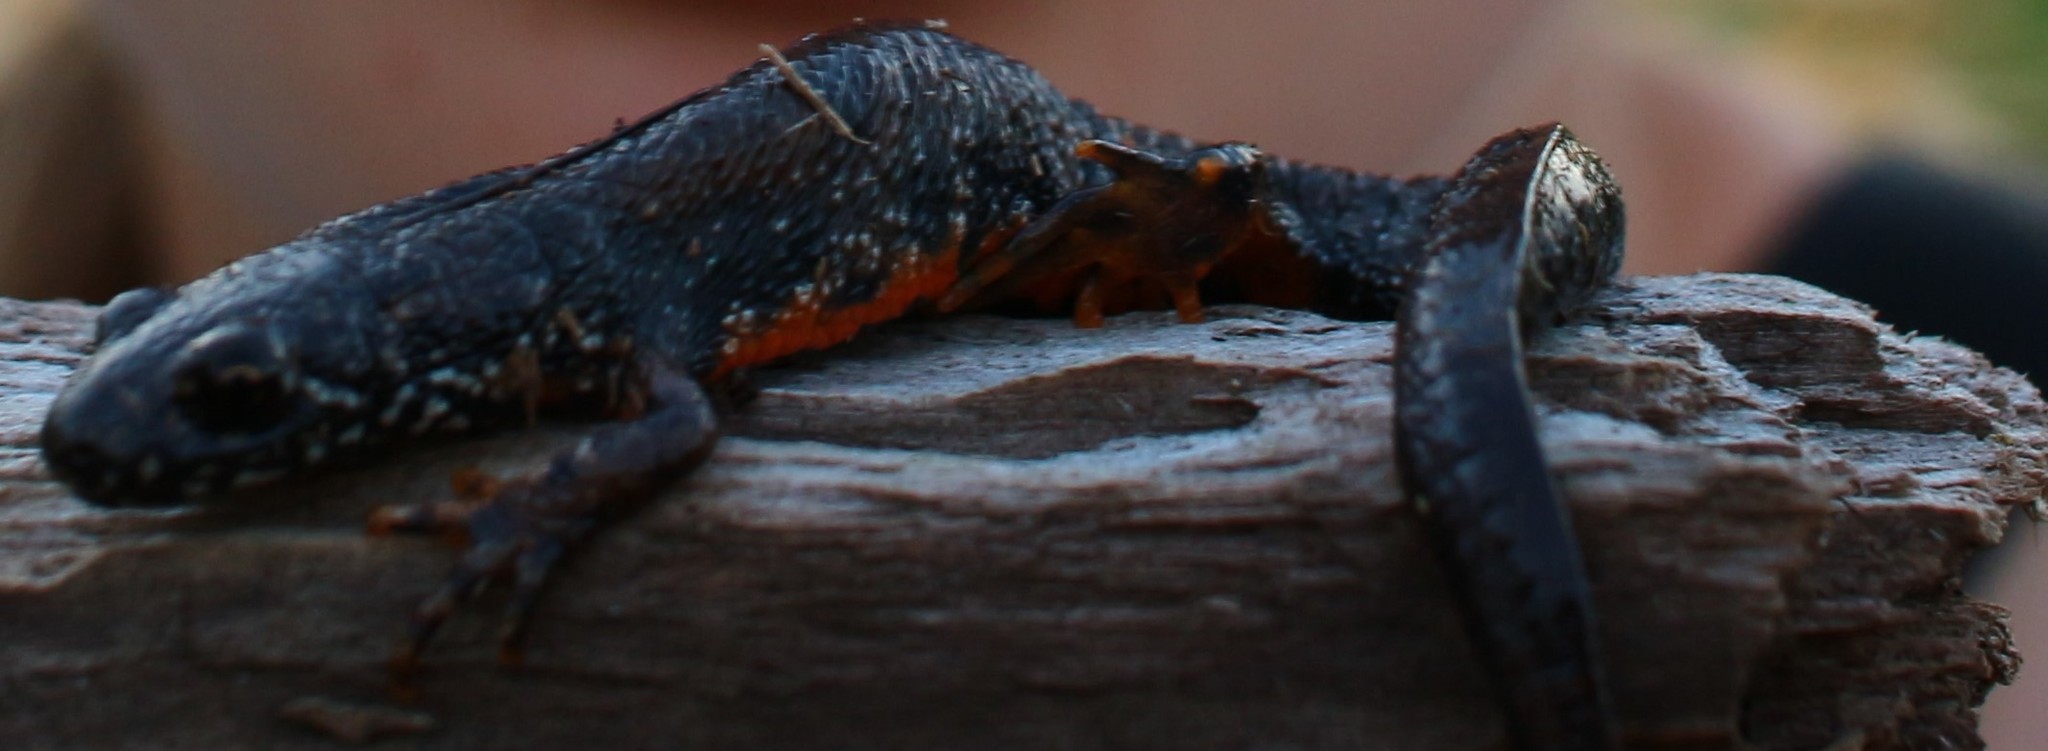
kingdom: Animalia
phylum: Chordata
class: Amphibia
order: Caudata
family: Salamandridae
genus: Triturus
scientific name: Triturus dobrogicus
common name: Danube crested newt
